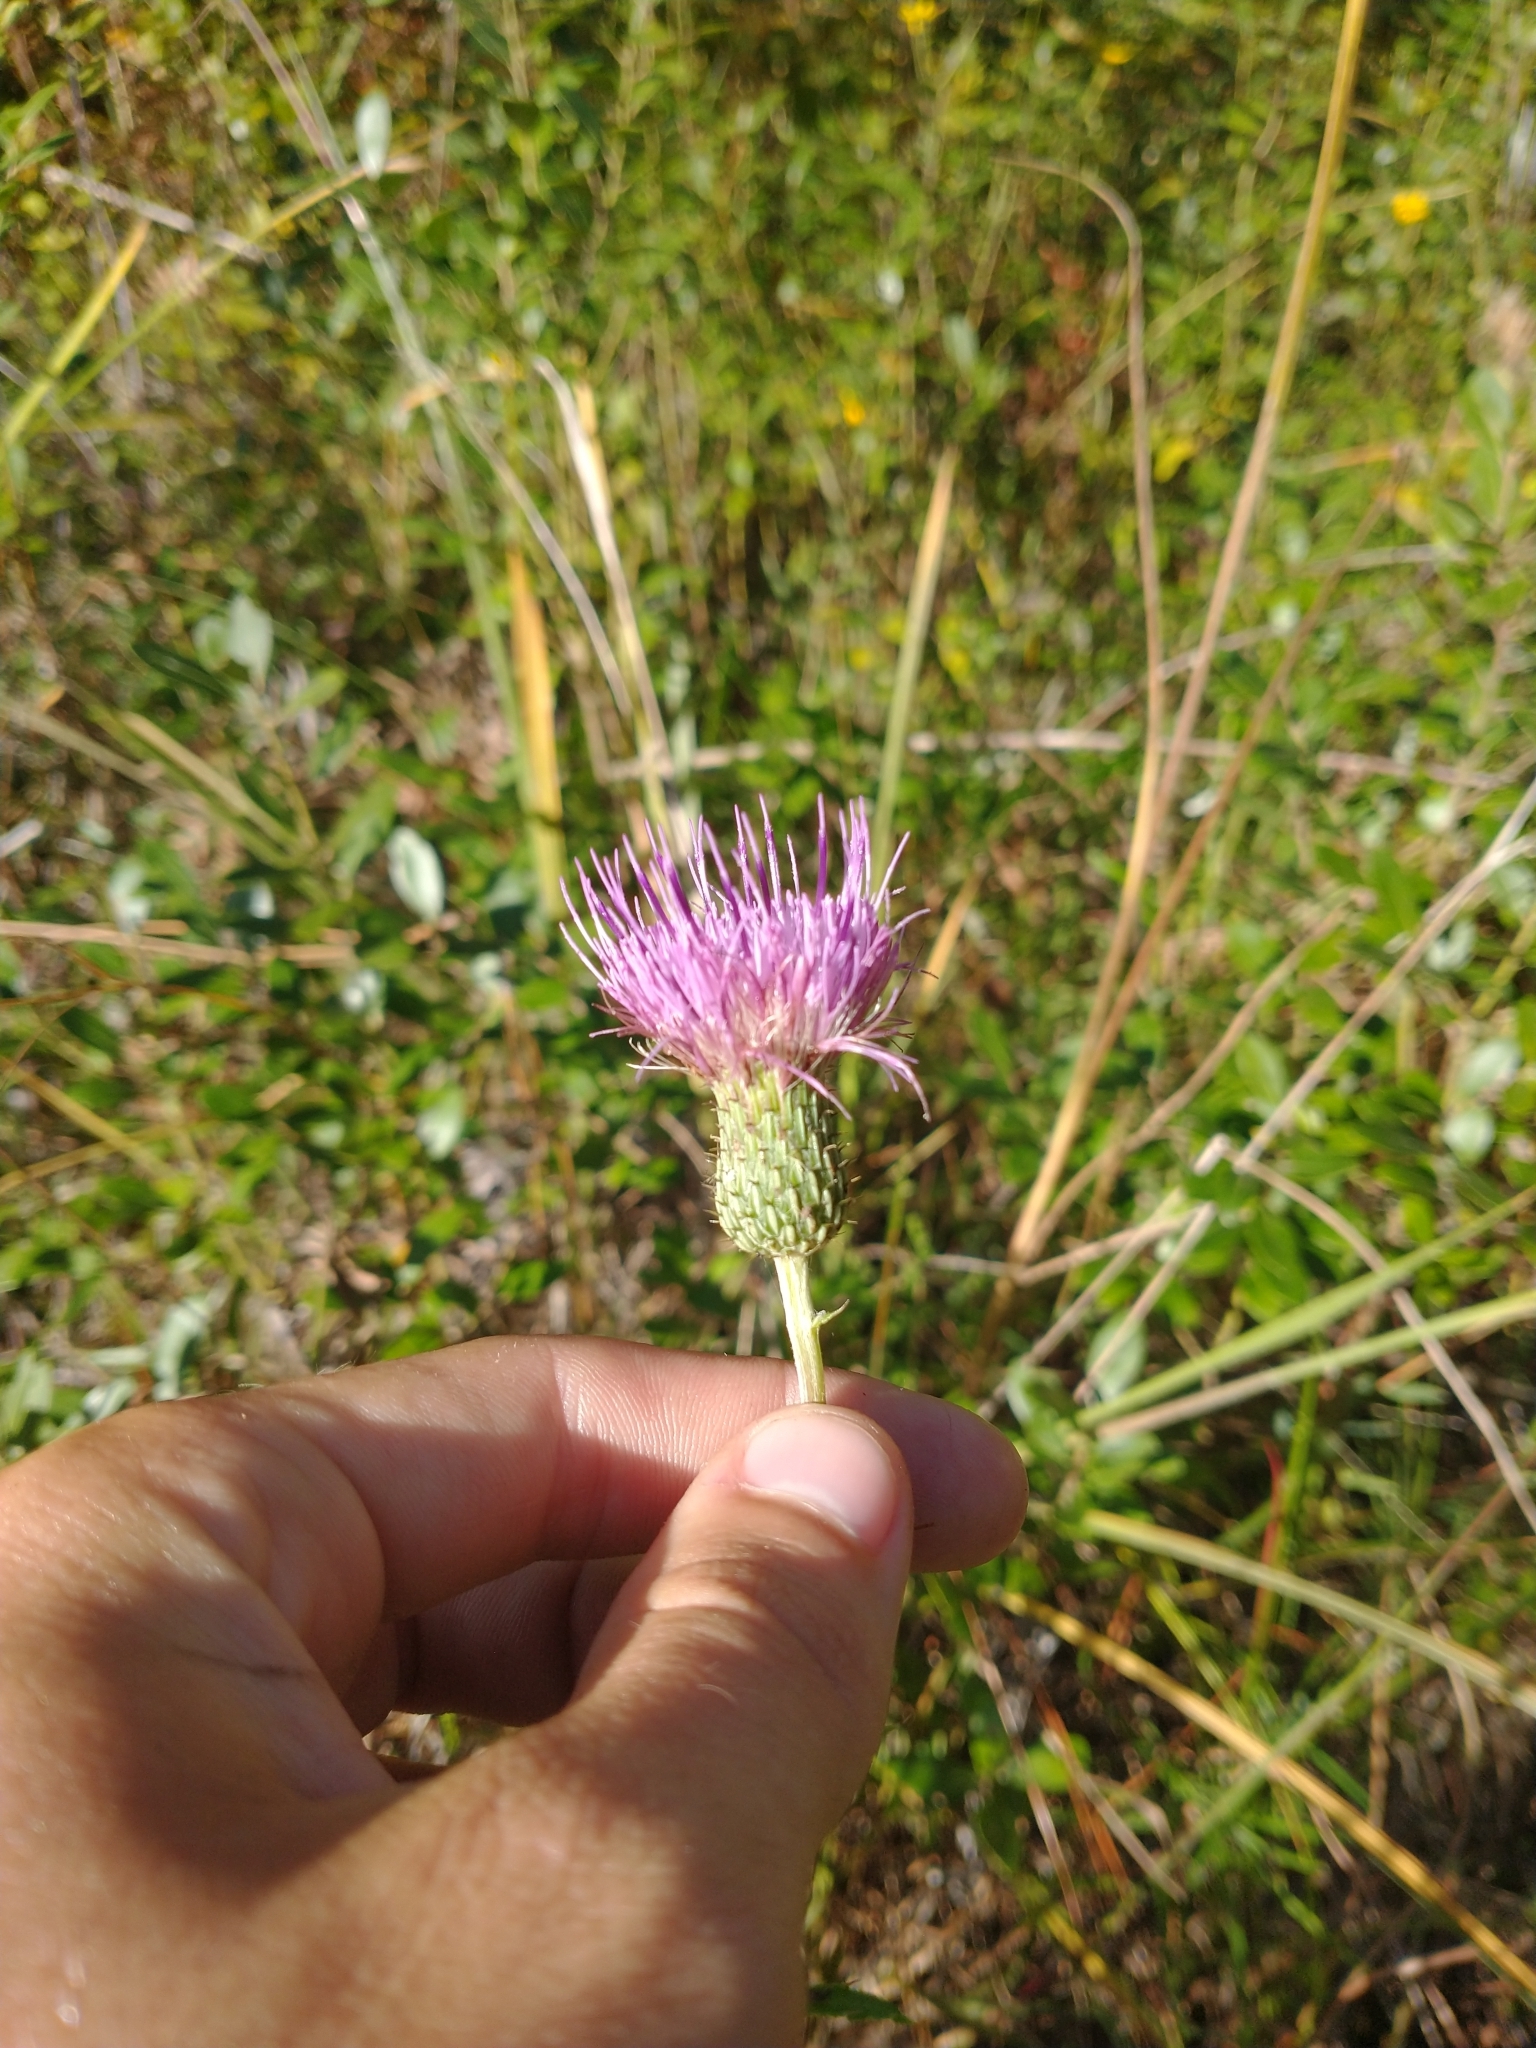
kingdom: Plantae
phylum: Tracheophyta
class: Magnoliopsida
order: Asterales
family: Asteraceae
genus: Cirsium
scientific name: Cirsium virginianum
